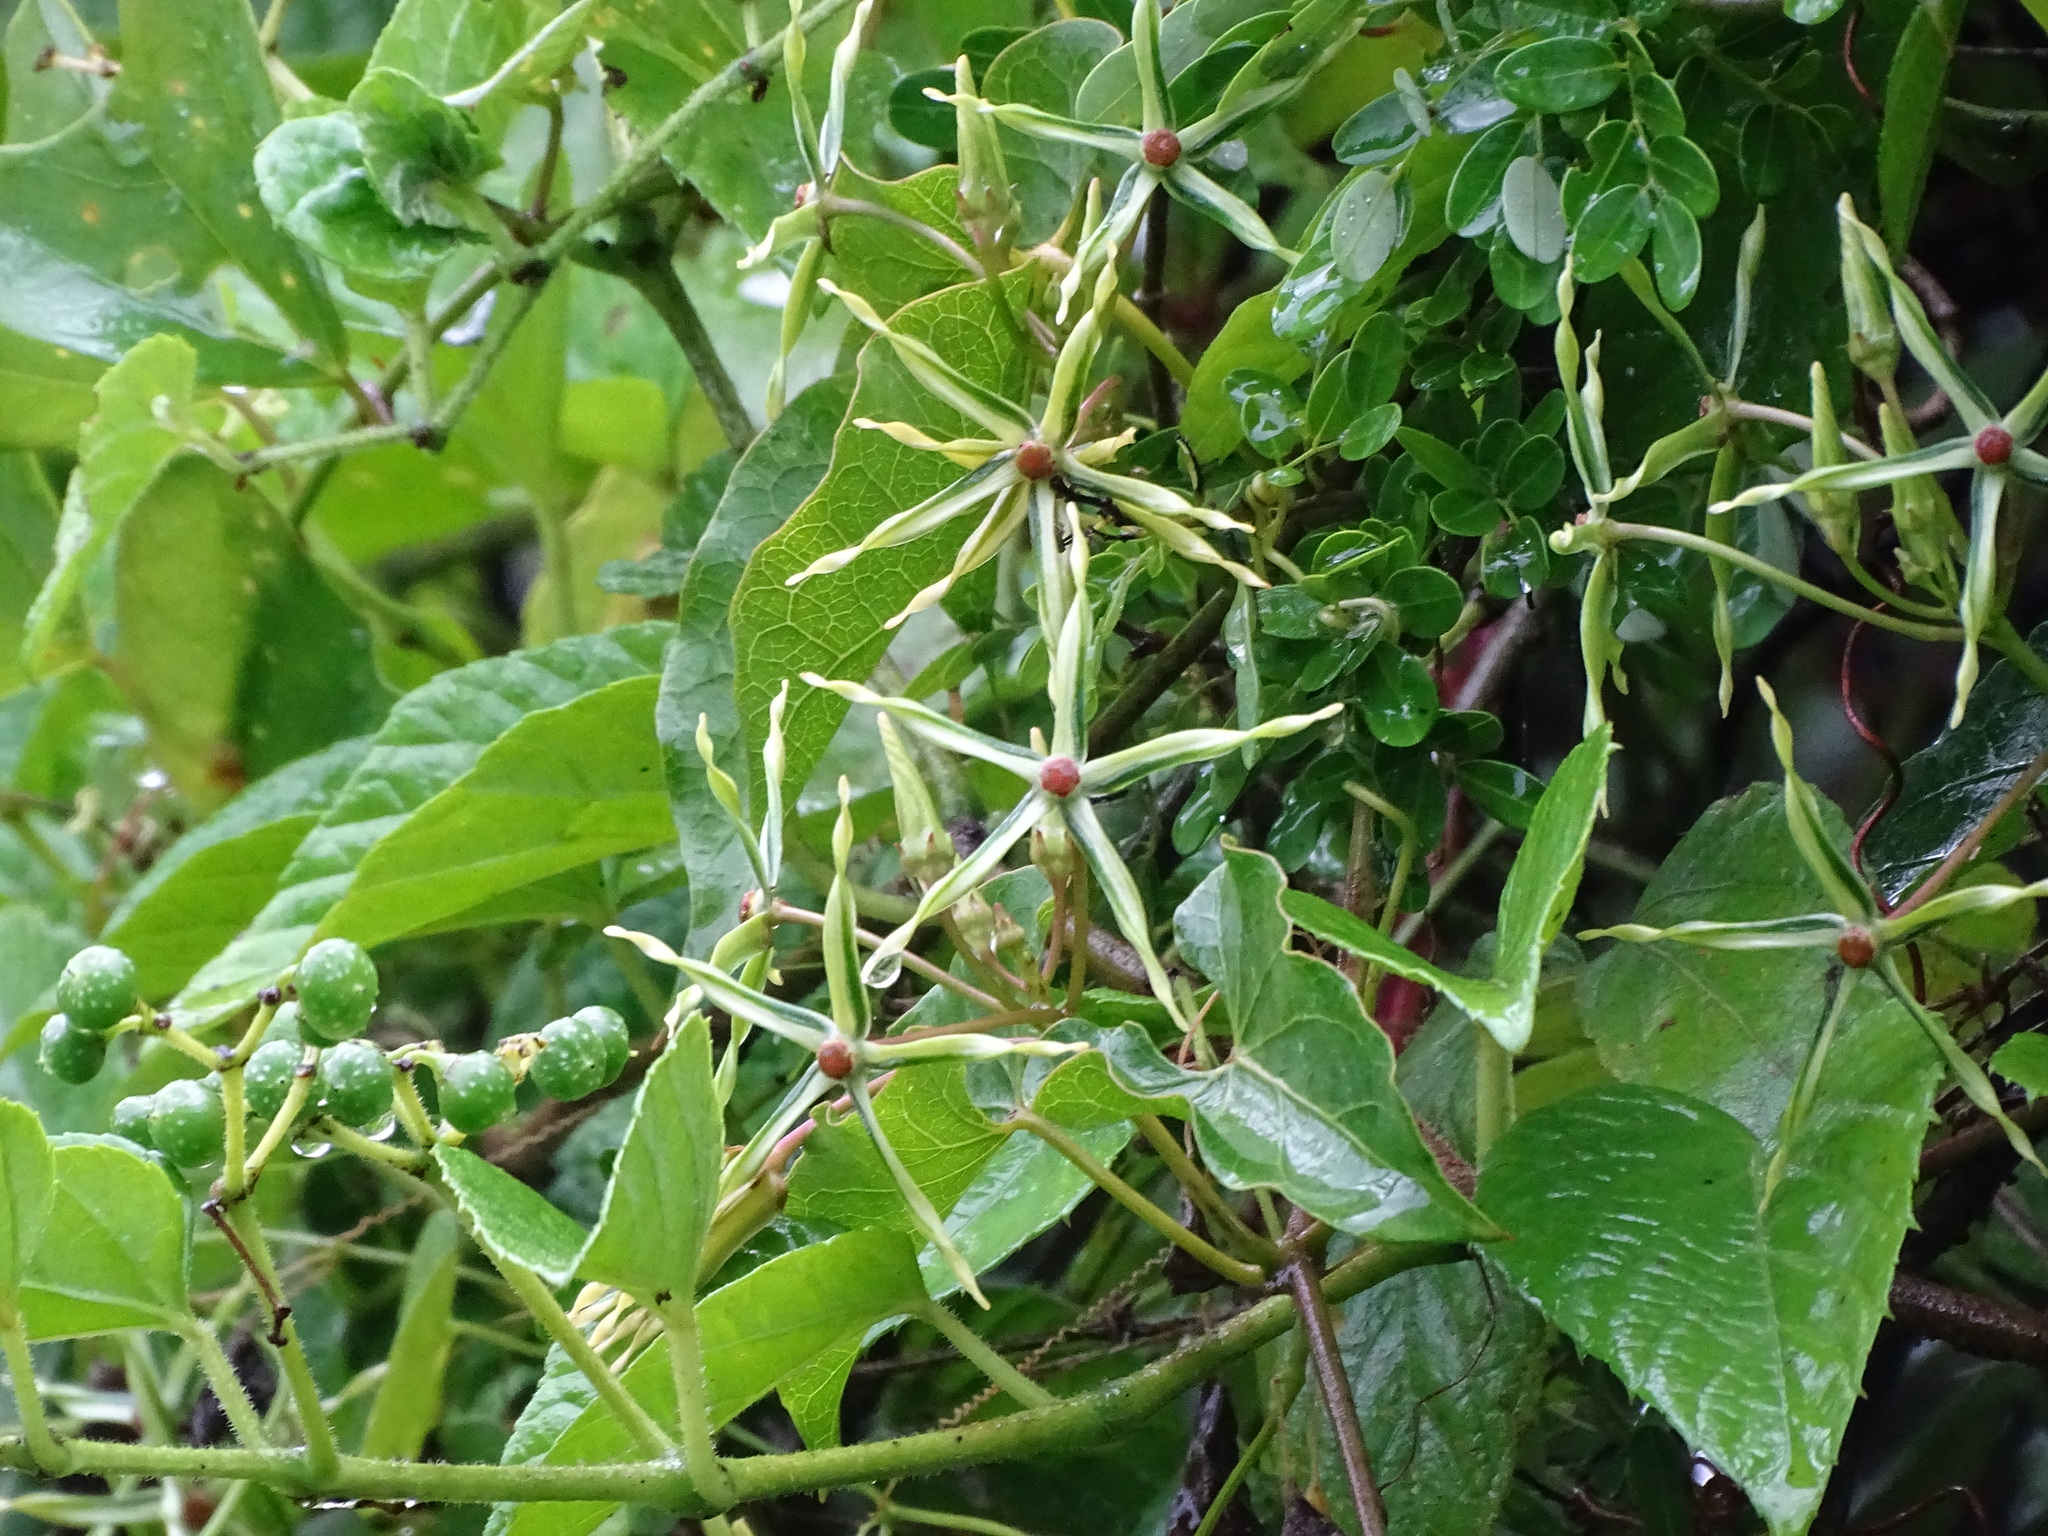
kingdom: Plantae
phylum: Tracheophyta
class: Magnoliopsida
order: Gentianales
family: Apocynaceae
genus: Gonolobus
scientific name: Gonolobus cteniophorus
